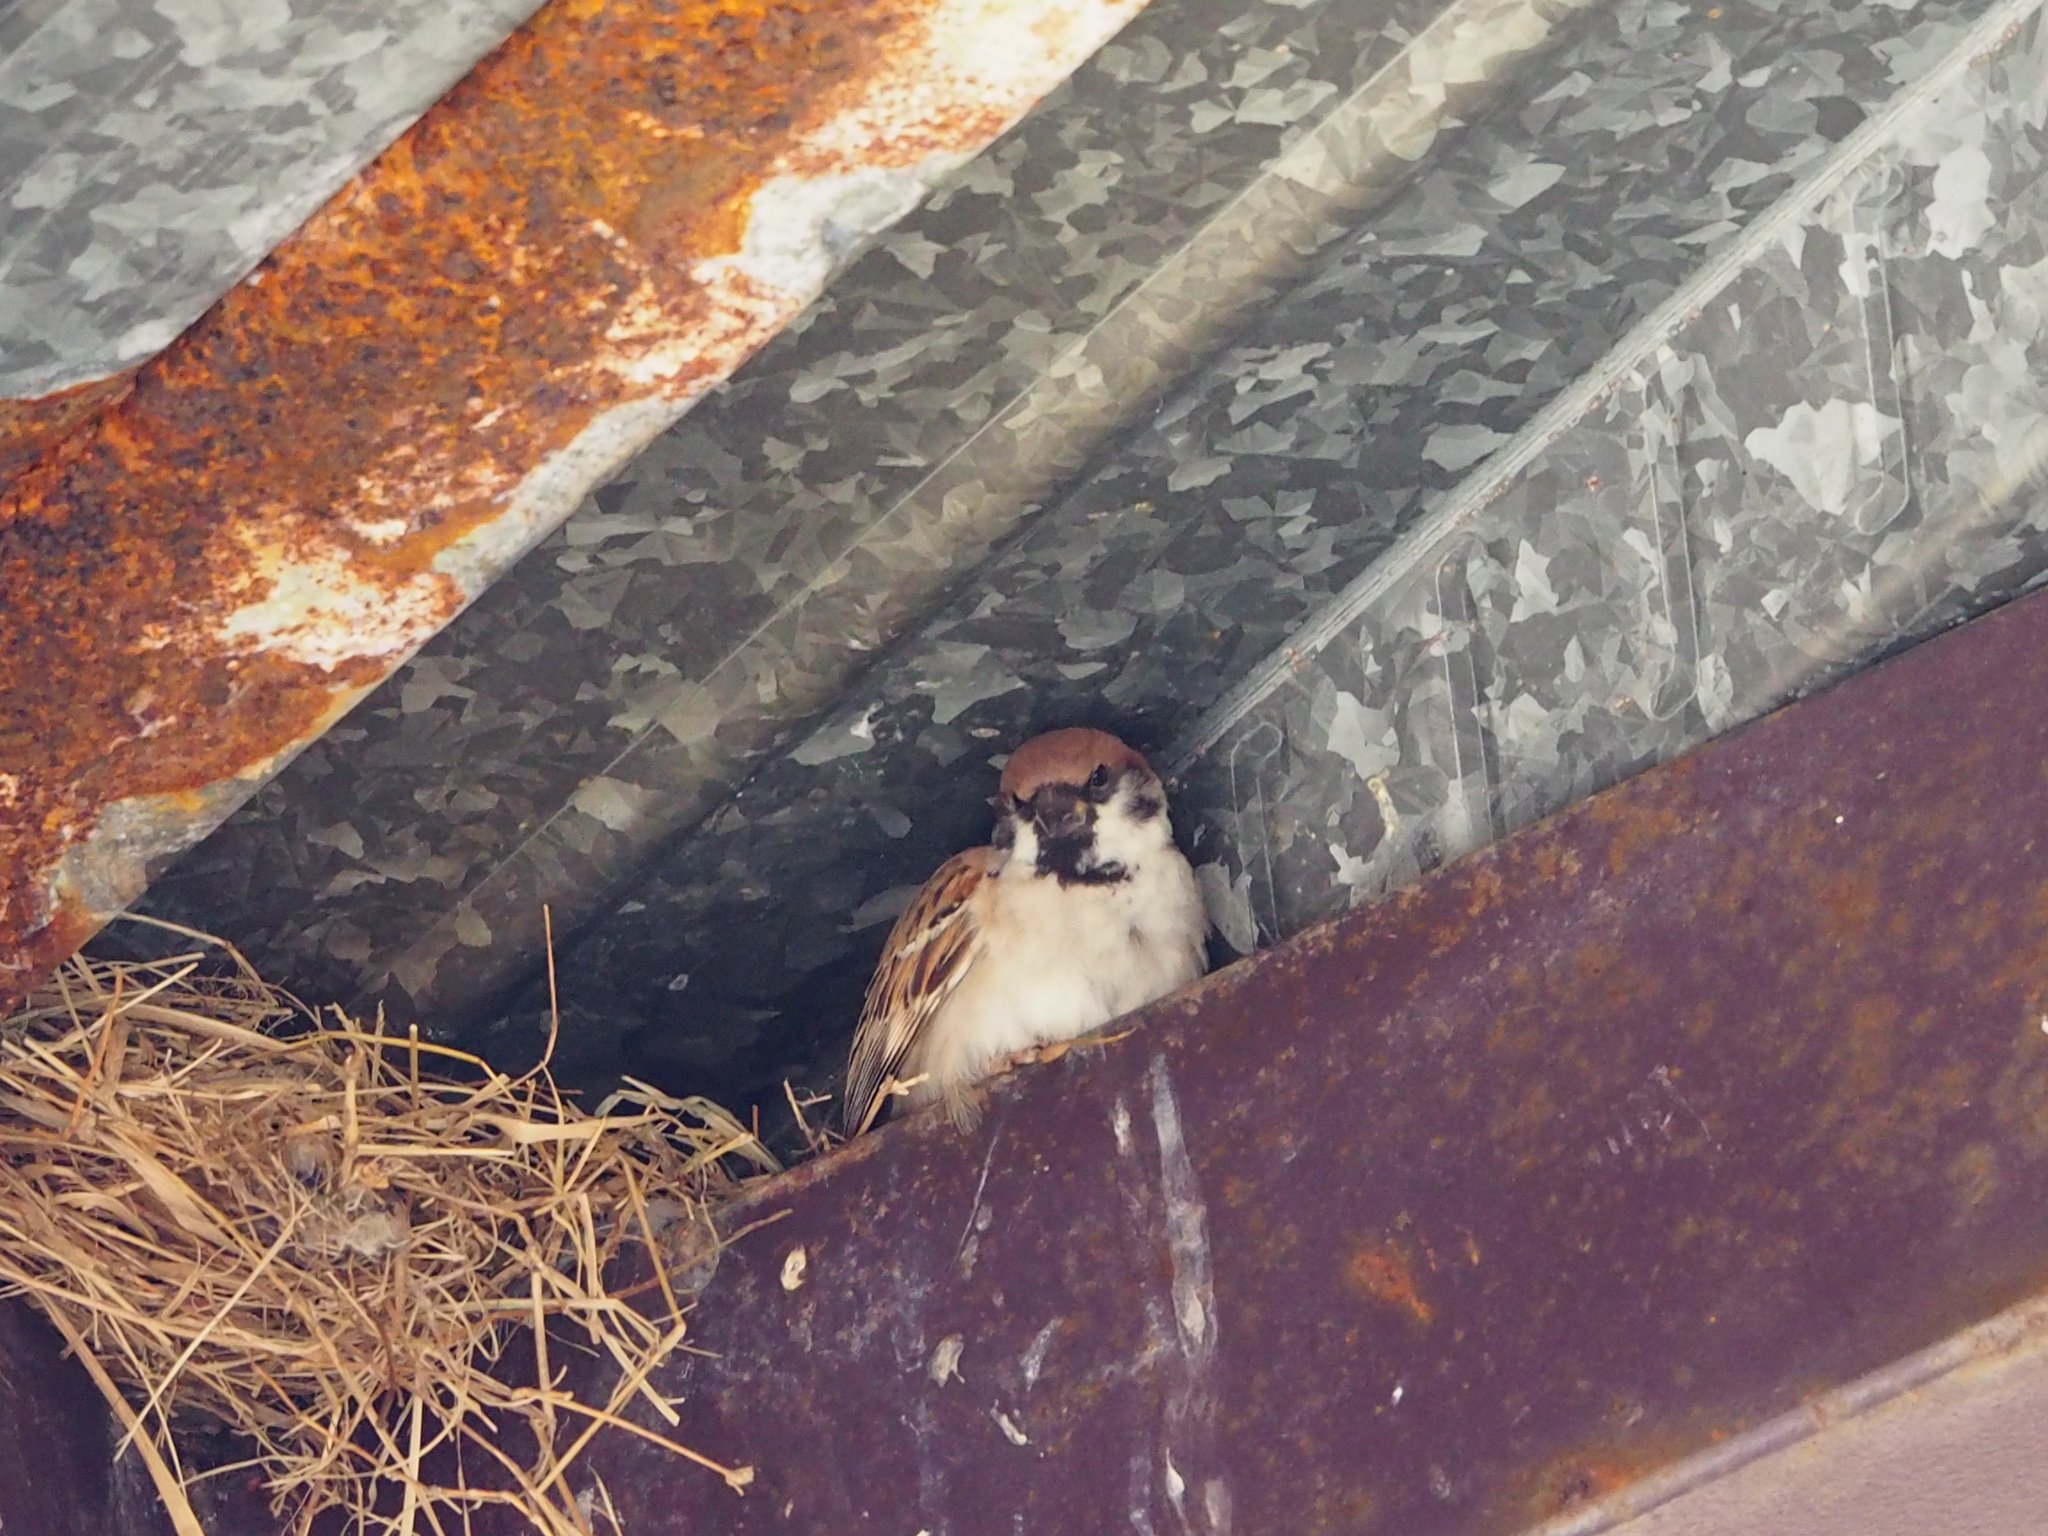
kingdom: Animalia
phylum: Chordata
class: Aves
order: Passeriformes
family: Passeridae
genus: Passer
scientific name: Passer montanus
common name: Eurasian tree sparrow
